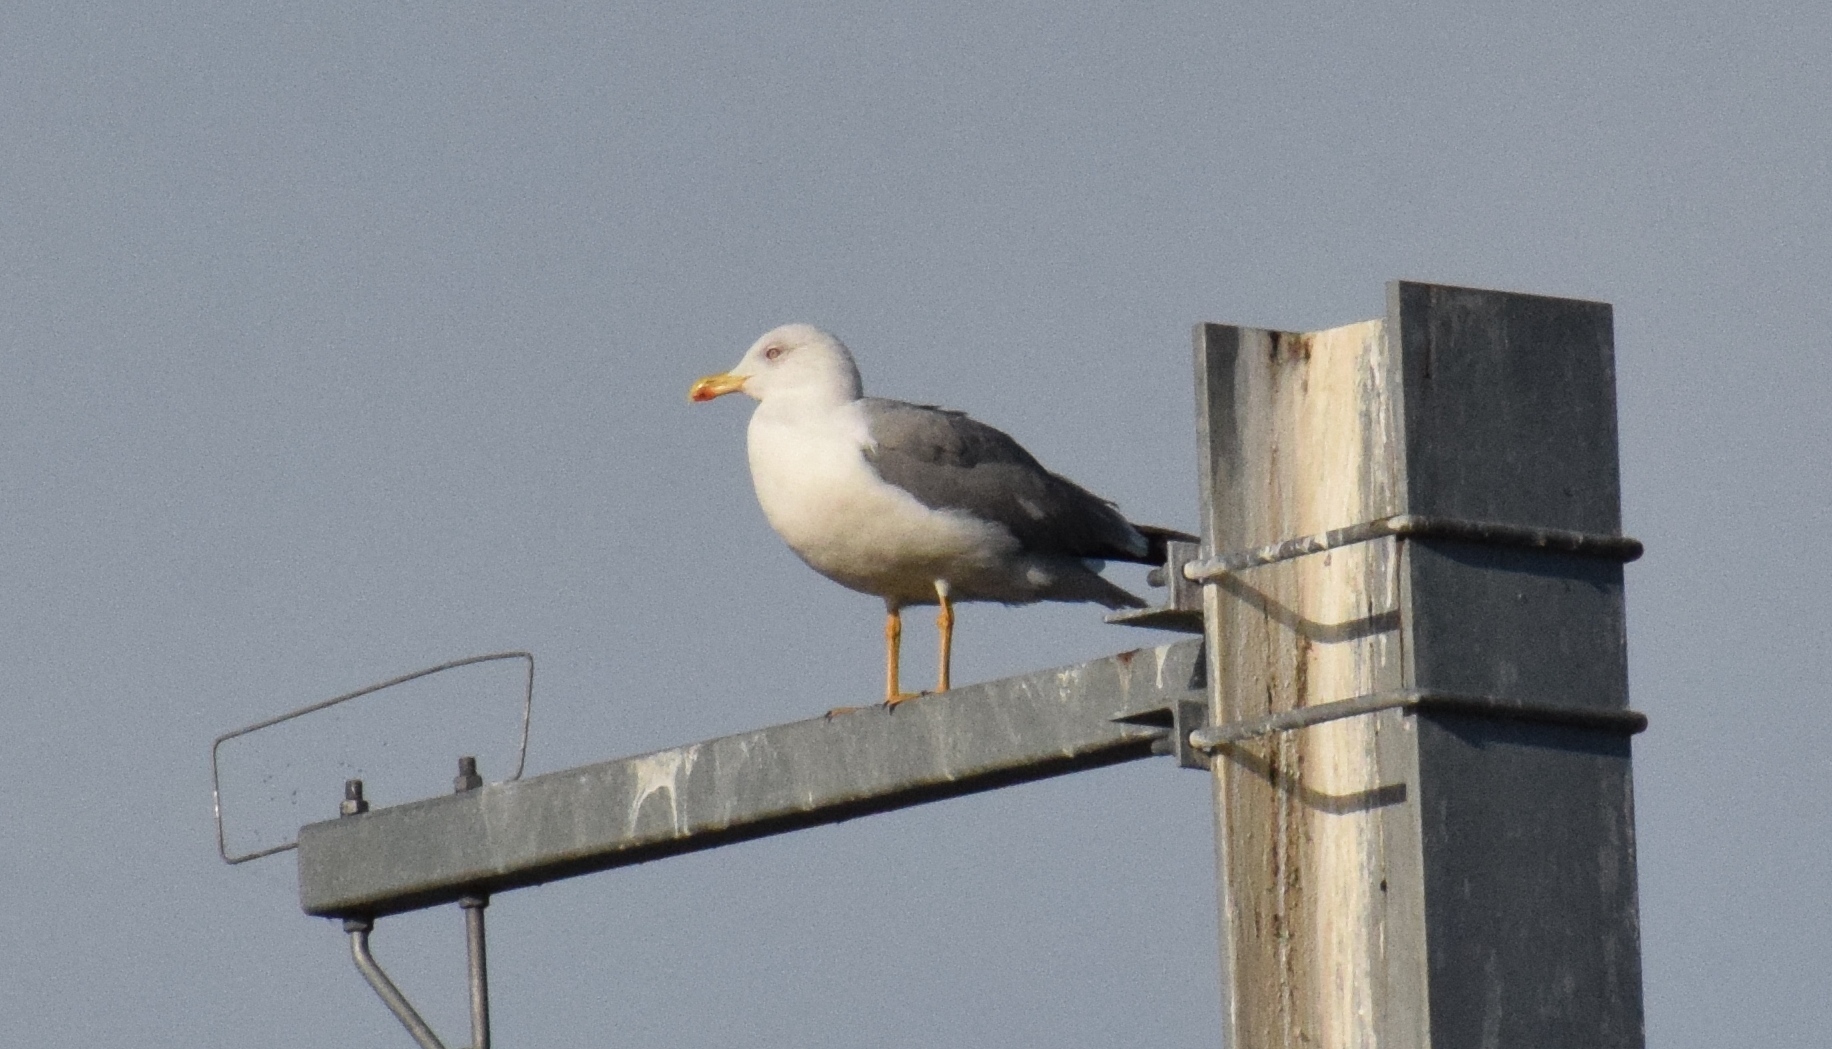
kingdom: Animalia
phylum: Chordata
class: Aves
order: Charadriiformes
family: Laridae
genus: Larus
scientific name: Larus michahellis
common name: Yellow-legged gull
